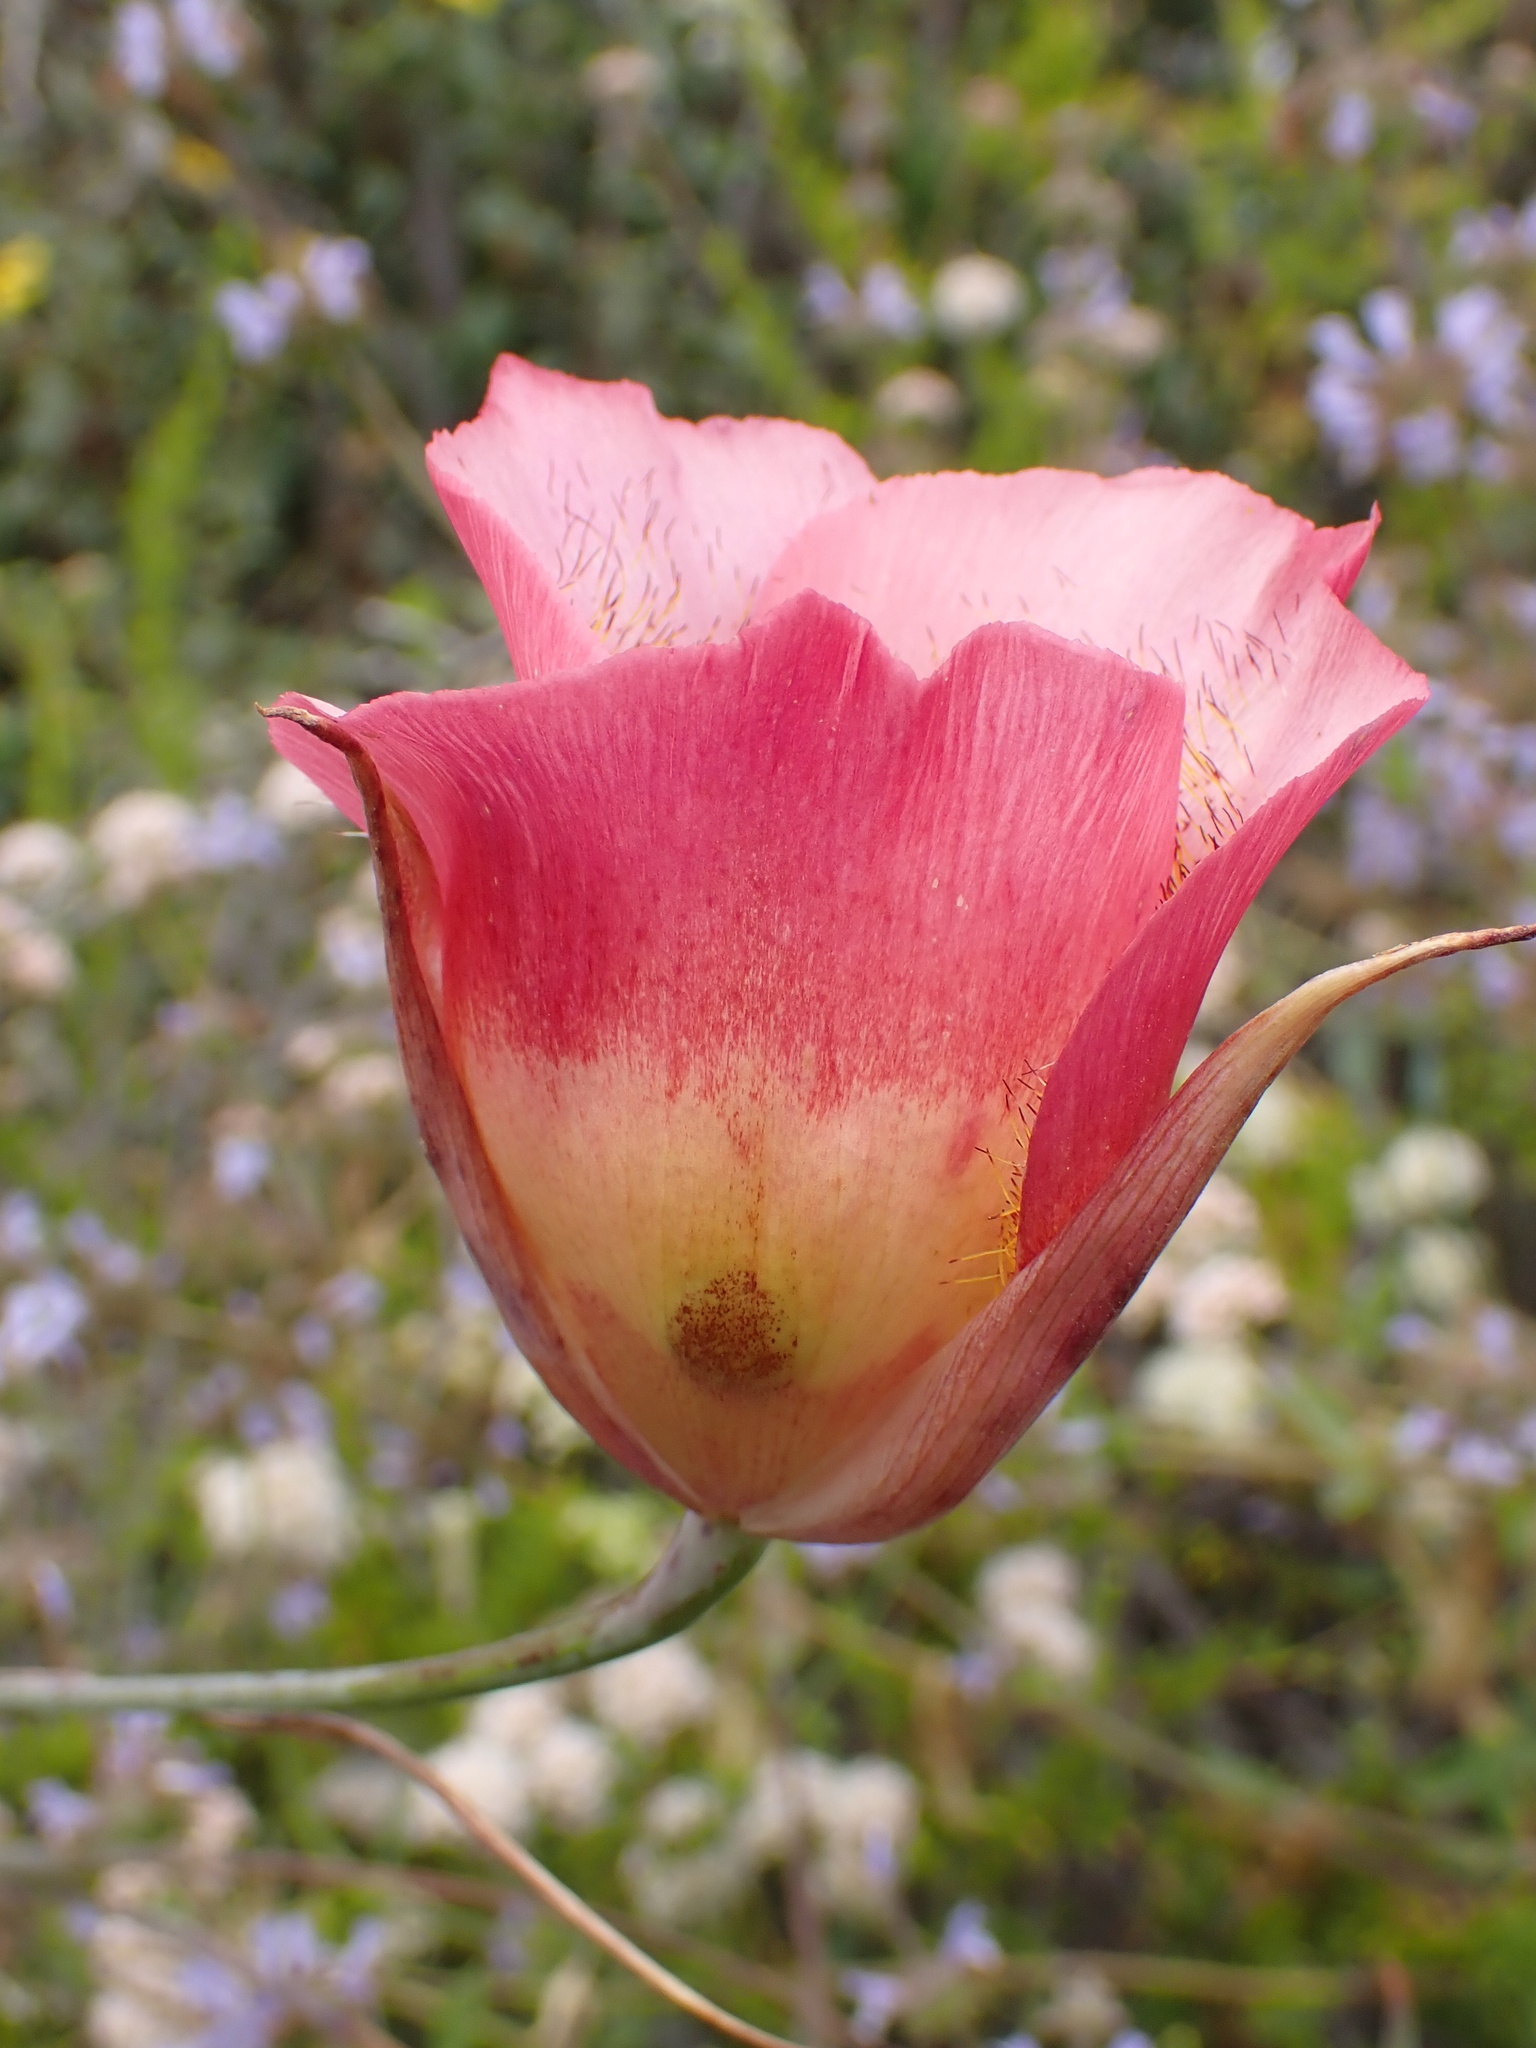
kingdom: Plantae
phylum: Tracheophyta
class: Liliopsida
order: Liliales
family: Liliaceae
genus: Calochortus
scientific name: Calochortus plummerae
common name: Plummer's mariposa-lily
